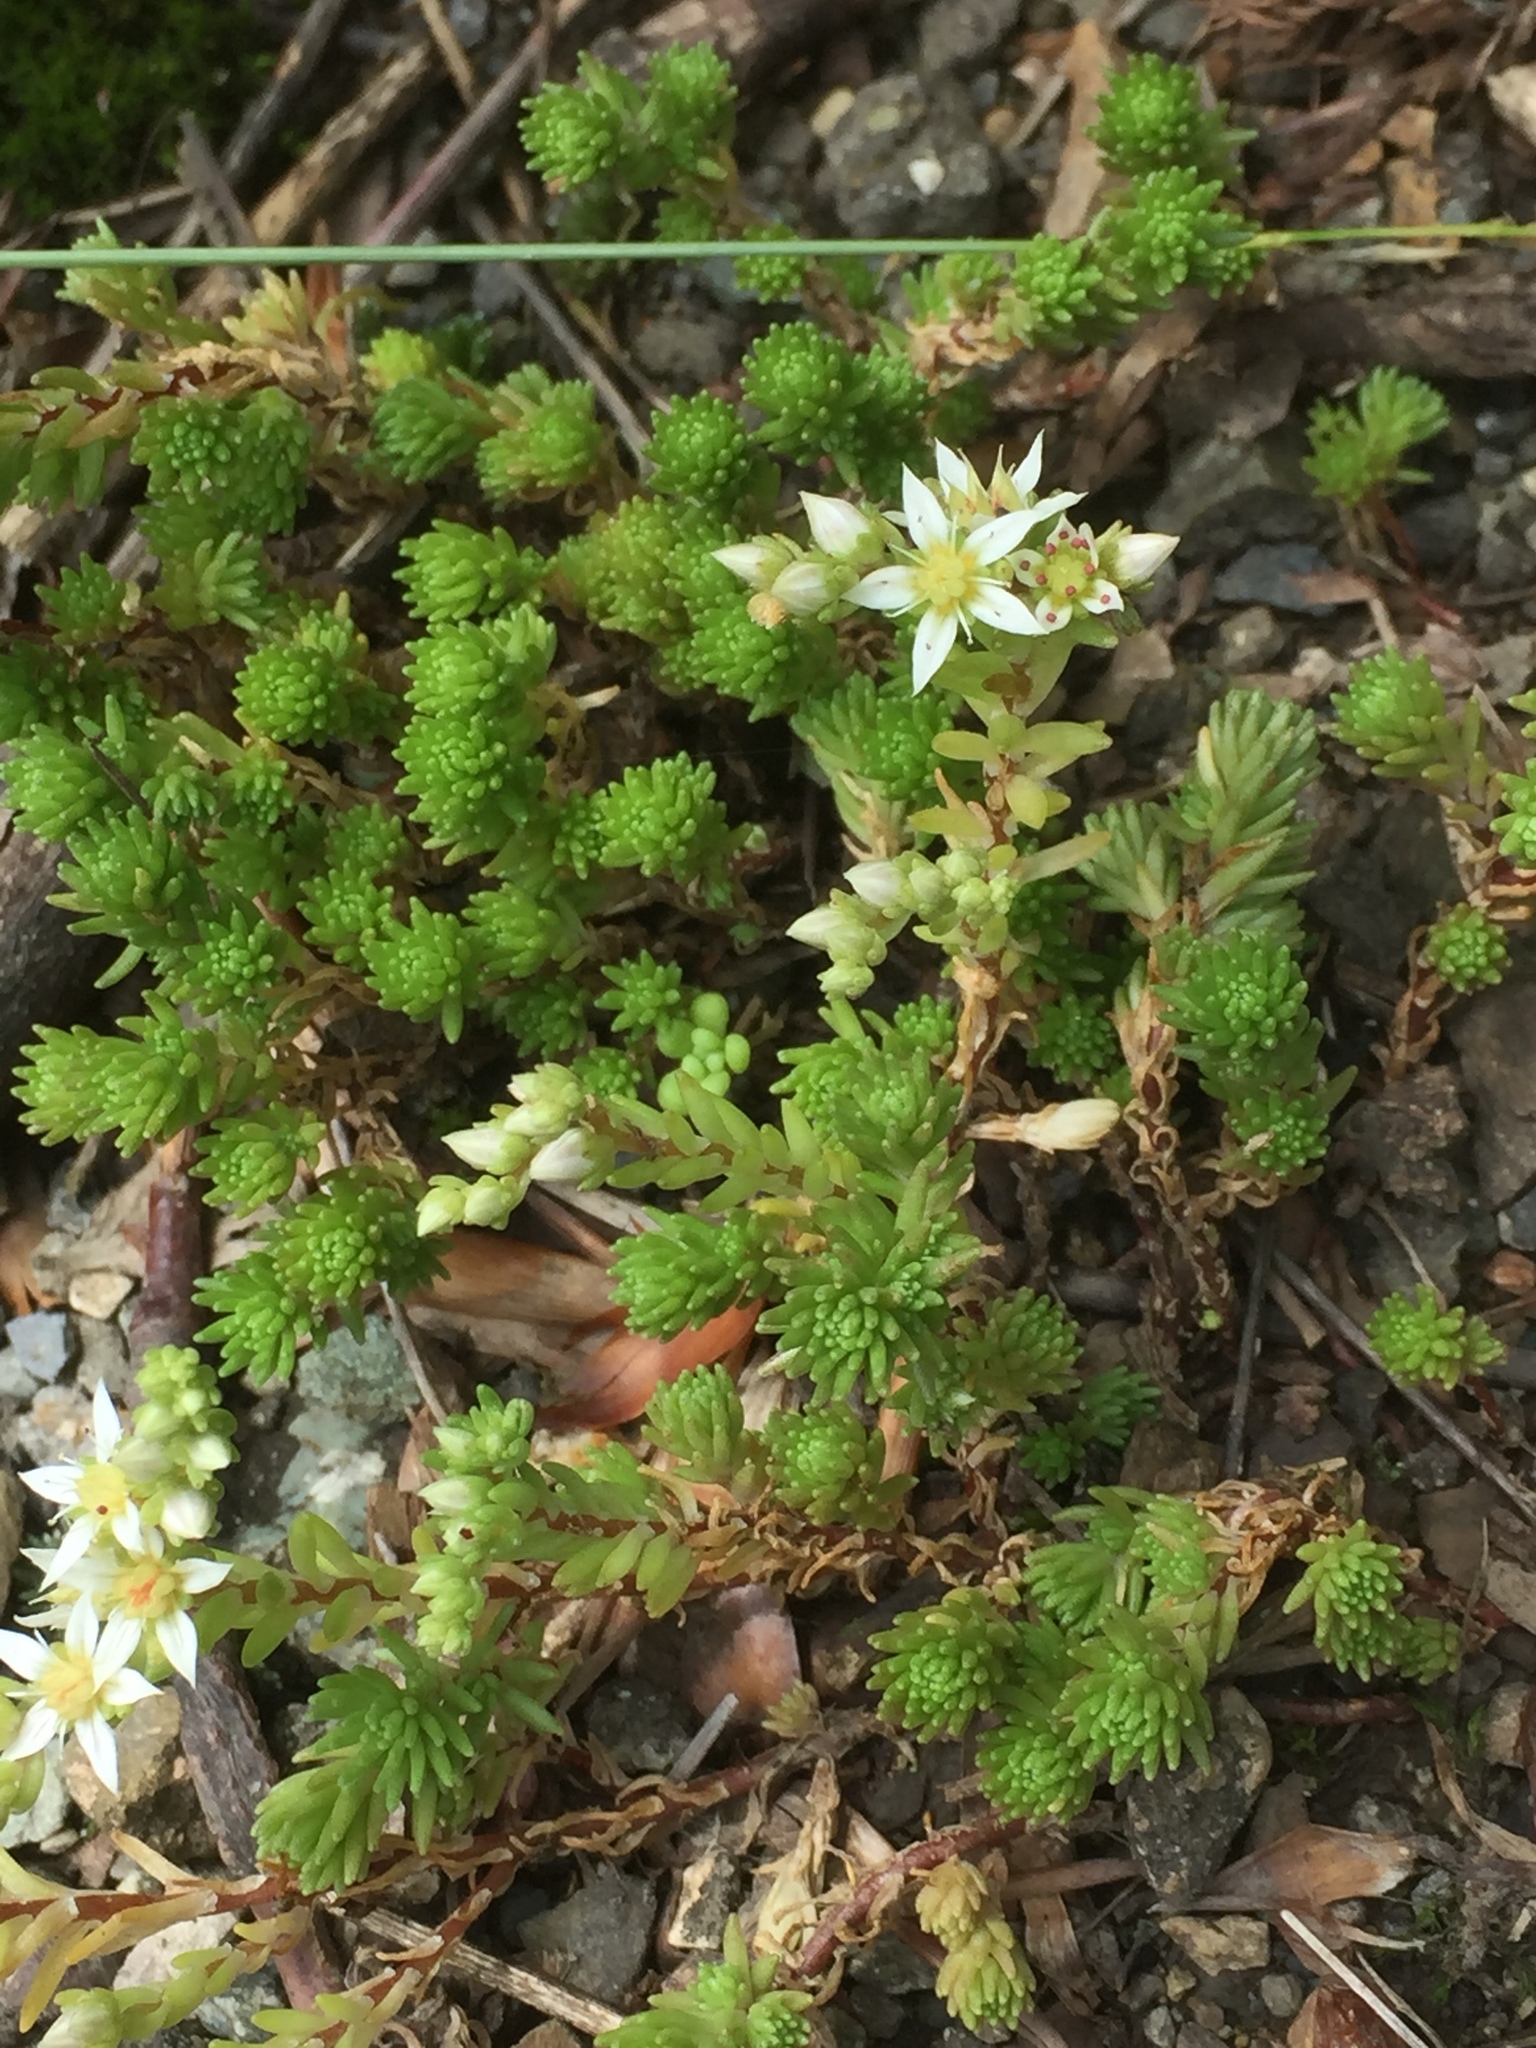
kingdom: Plantae
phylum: Tracheophyta
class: Magnoliopsida
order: Saxifragales
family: Crassulaceae
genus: Sedum
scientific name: Sedum gracile
